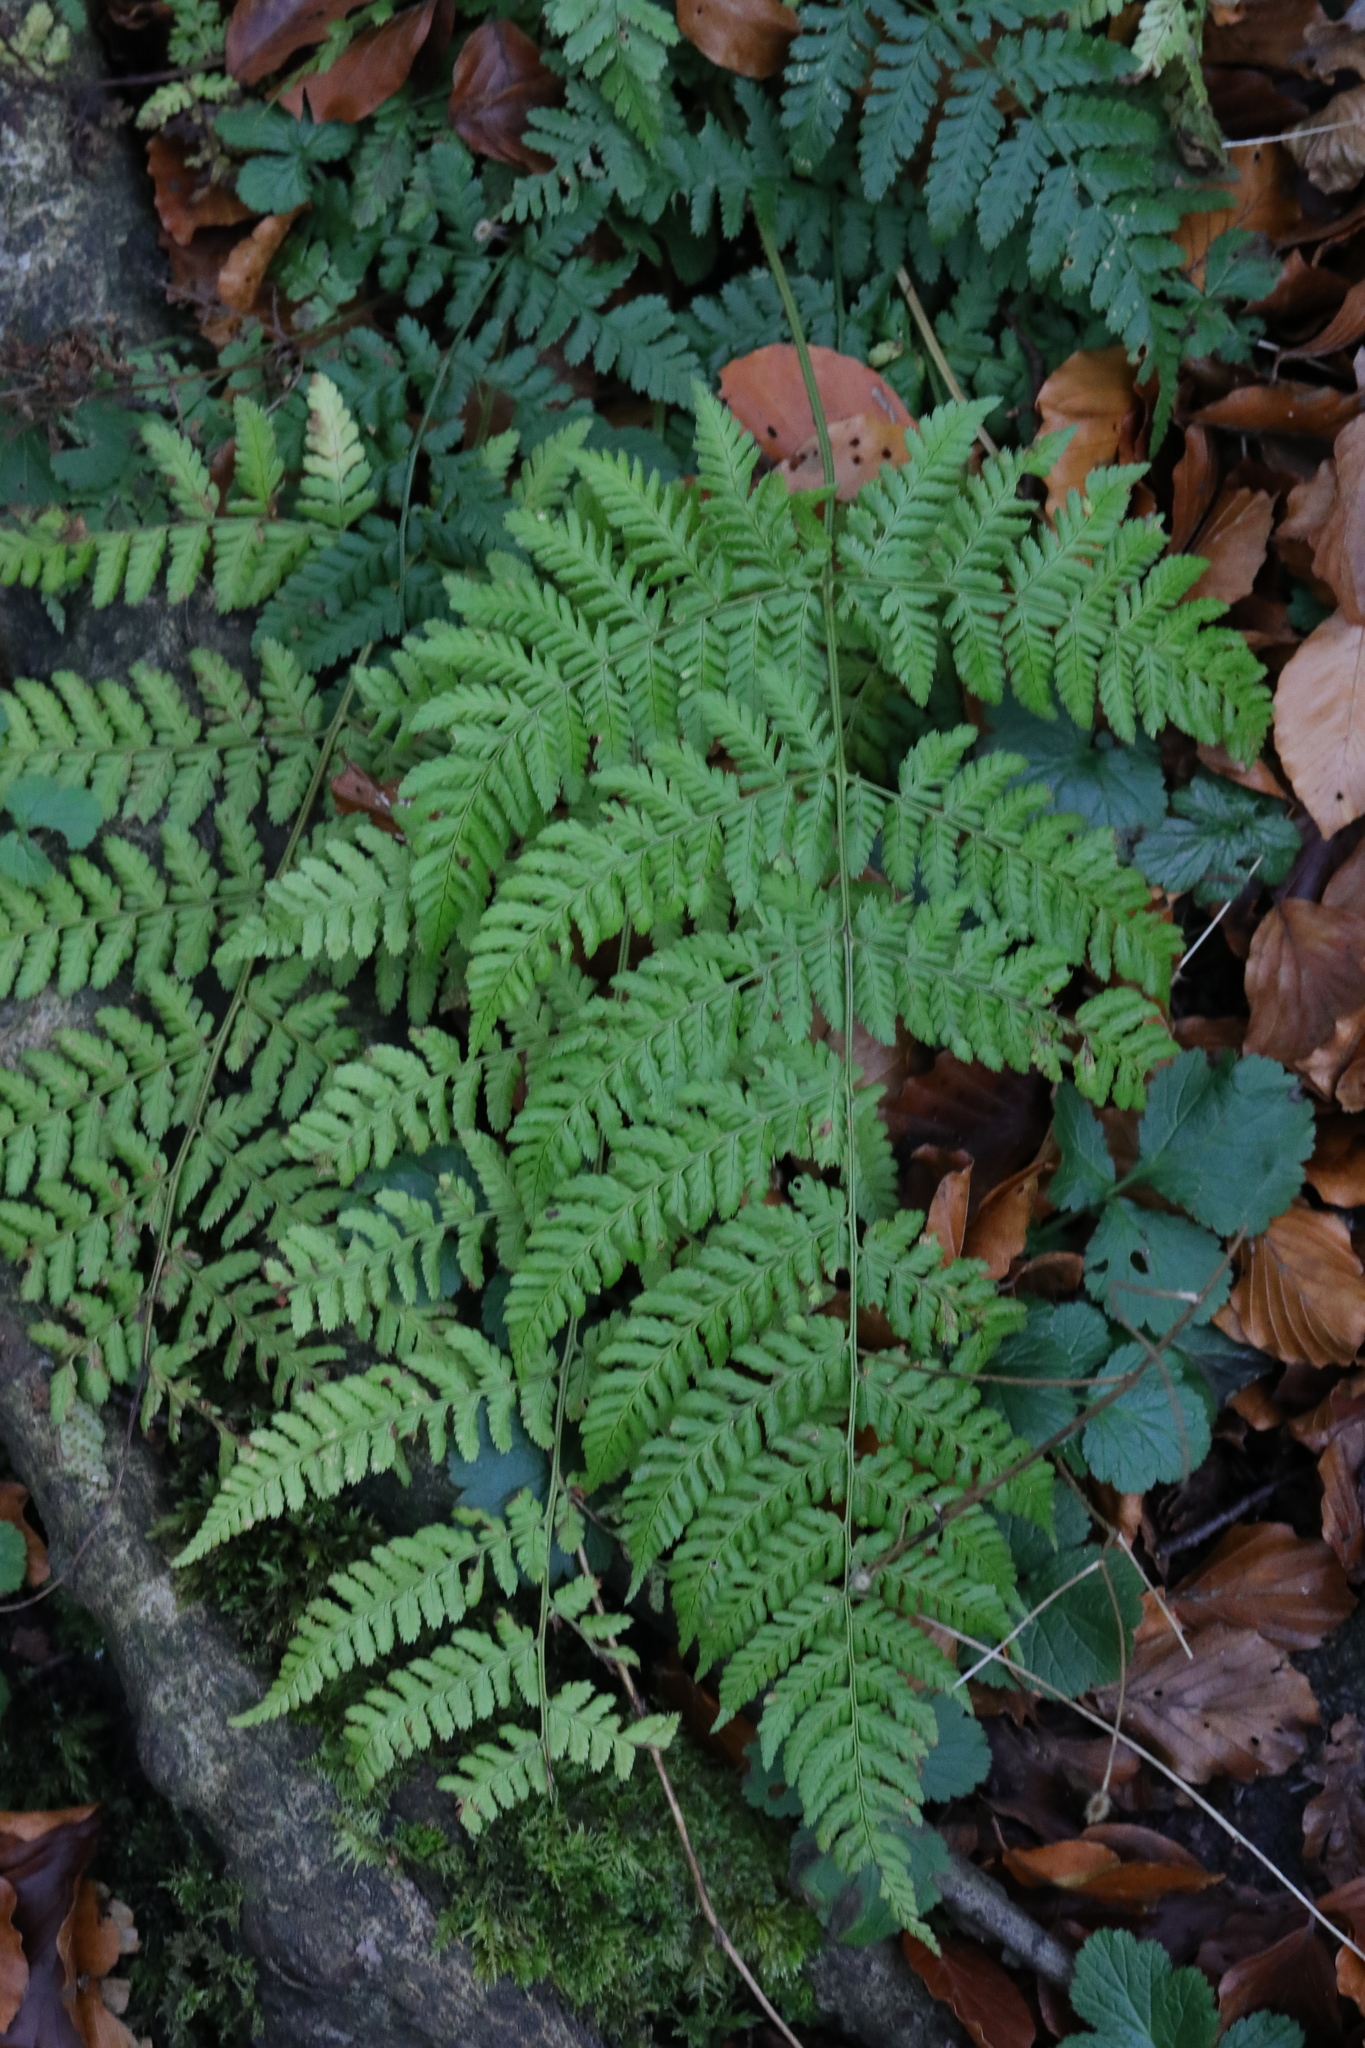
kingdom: Plantae
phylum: Tracheophyta
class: Polypodiopsida
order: Polypodiales
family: Dryopteridaceae
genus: Dryopteris
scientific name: Dryopteris dilatata
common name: Broad buckler-fern
